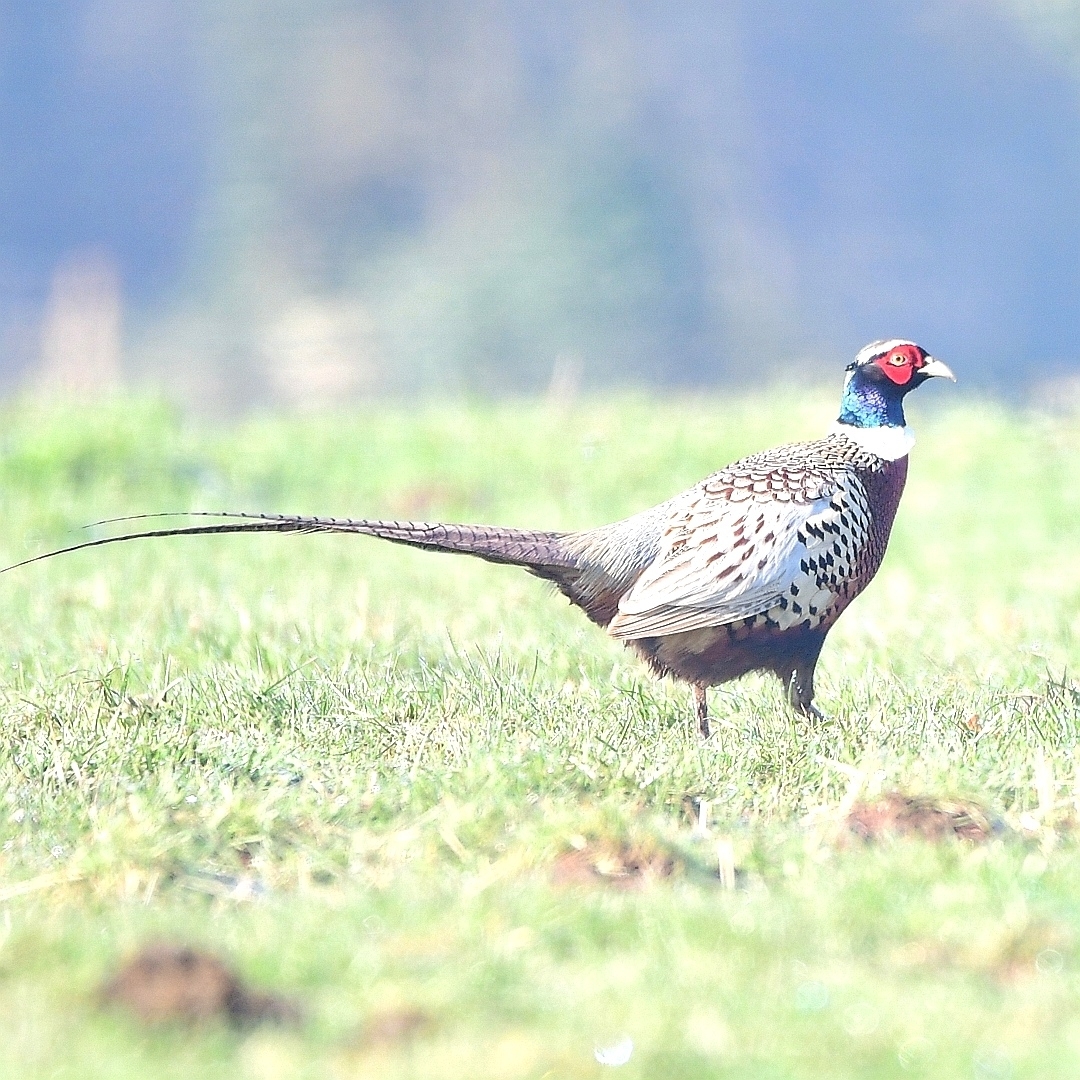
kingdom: Animalia
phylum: Chordata
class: Aves
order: Galliformes
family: Phasianidae
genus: Phasianus
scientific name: Phasianus colchicus
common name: Common pheasant
